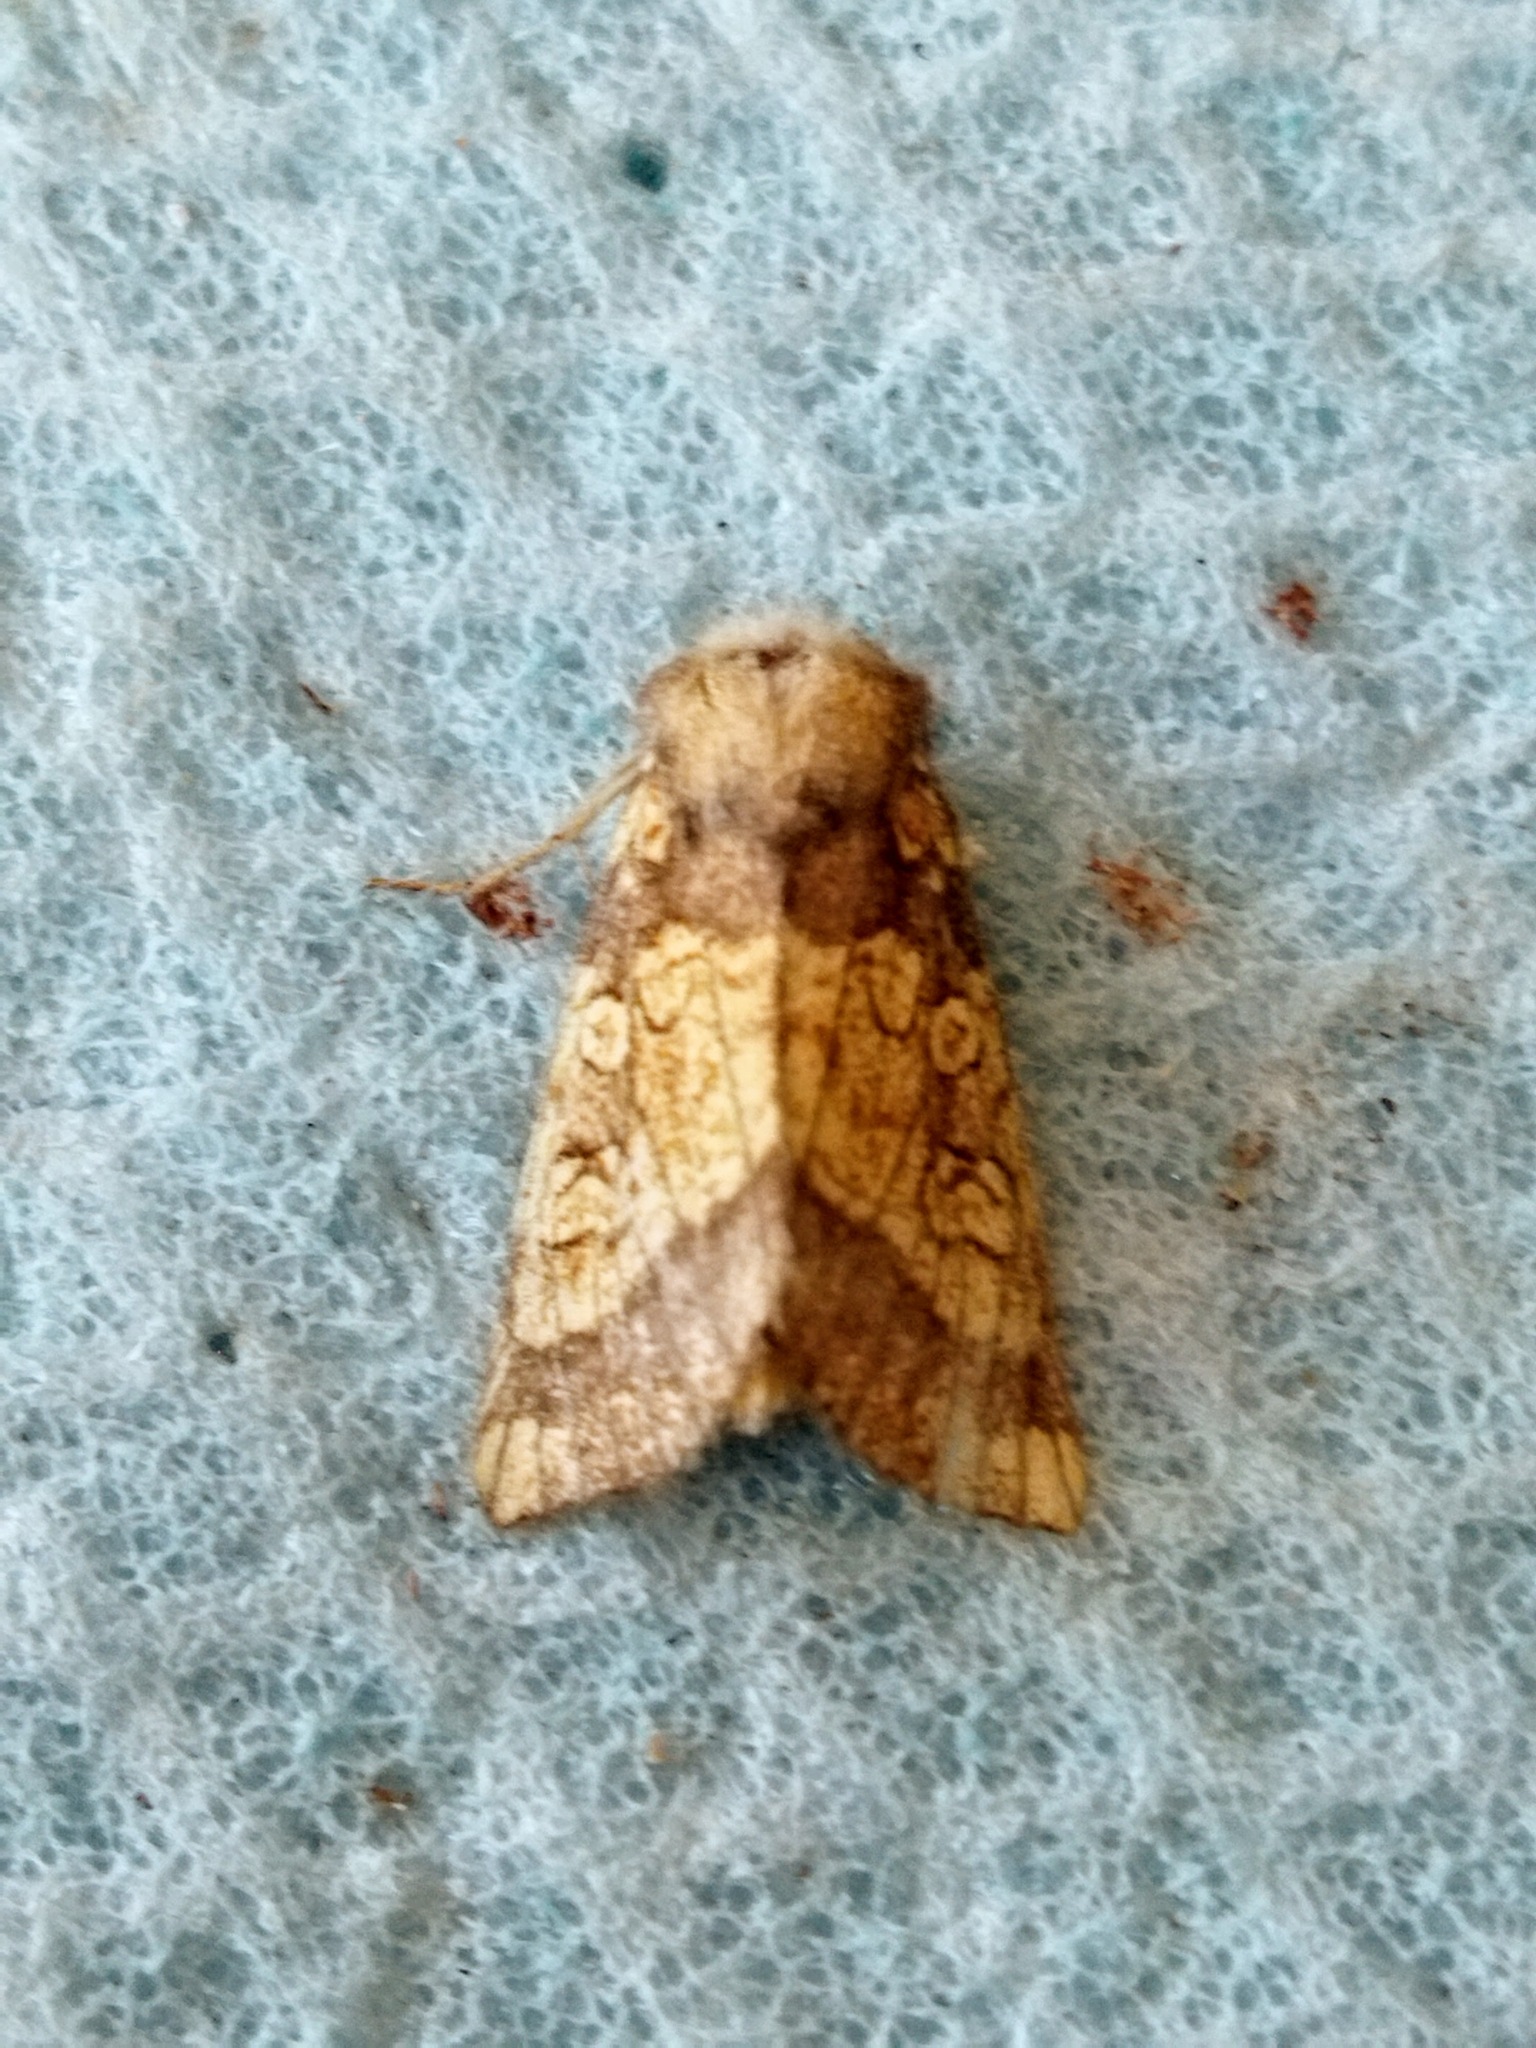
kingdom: Animalia
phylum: Arthropoda
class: Insecta
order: Lepidoptera
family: Noctuidae
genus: Gortyna
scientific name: Gortyna flavago
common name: Frosted orange
